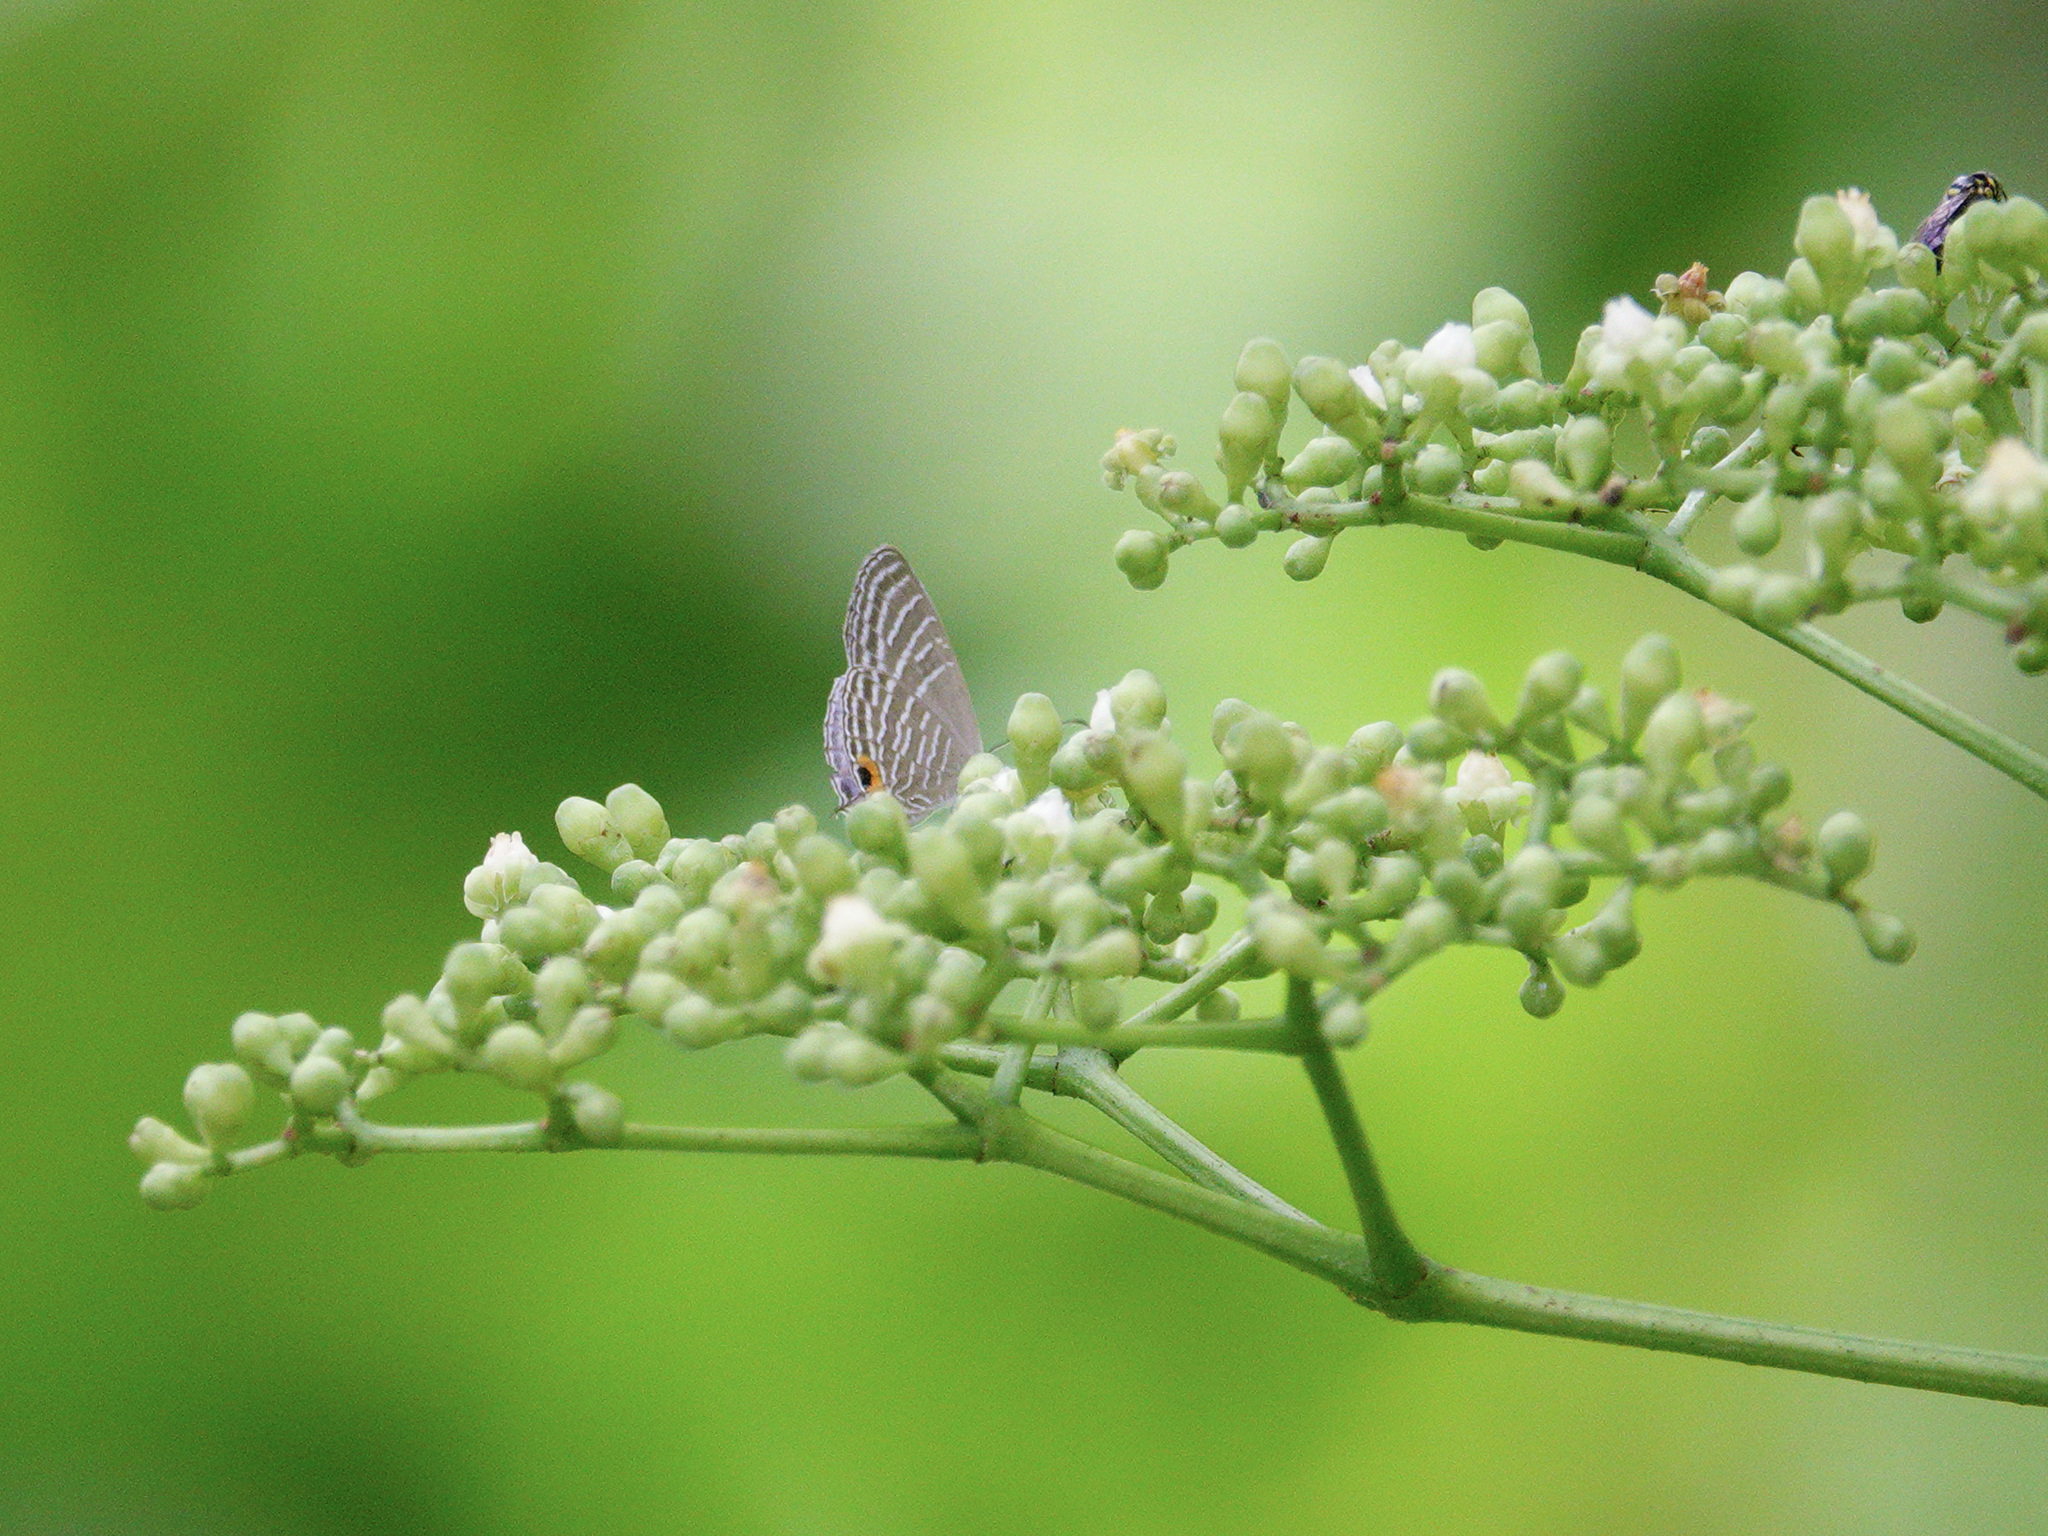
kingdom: Animalia
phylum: Arthropoda
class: Insecta
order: Lepidoptera
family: Lycaenidae
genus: Jamides
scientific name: Jamides celeno
